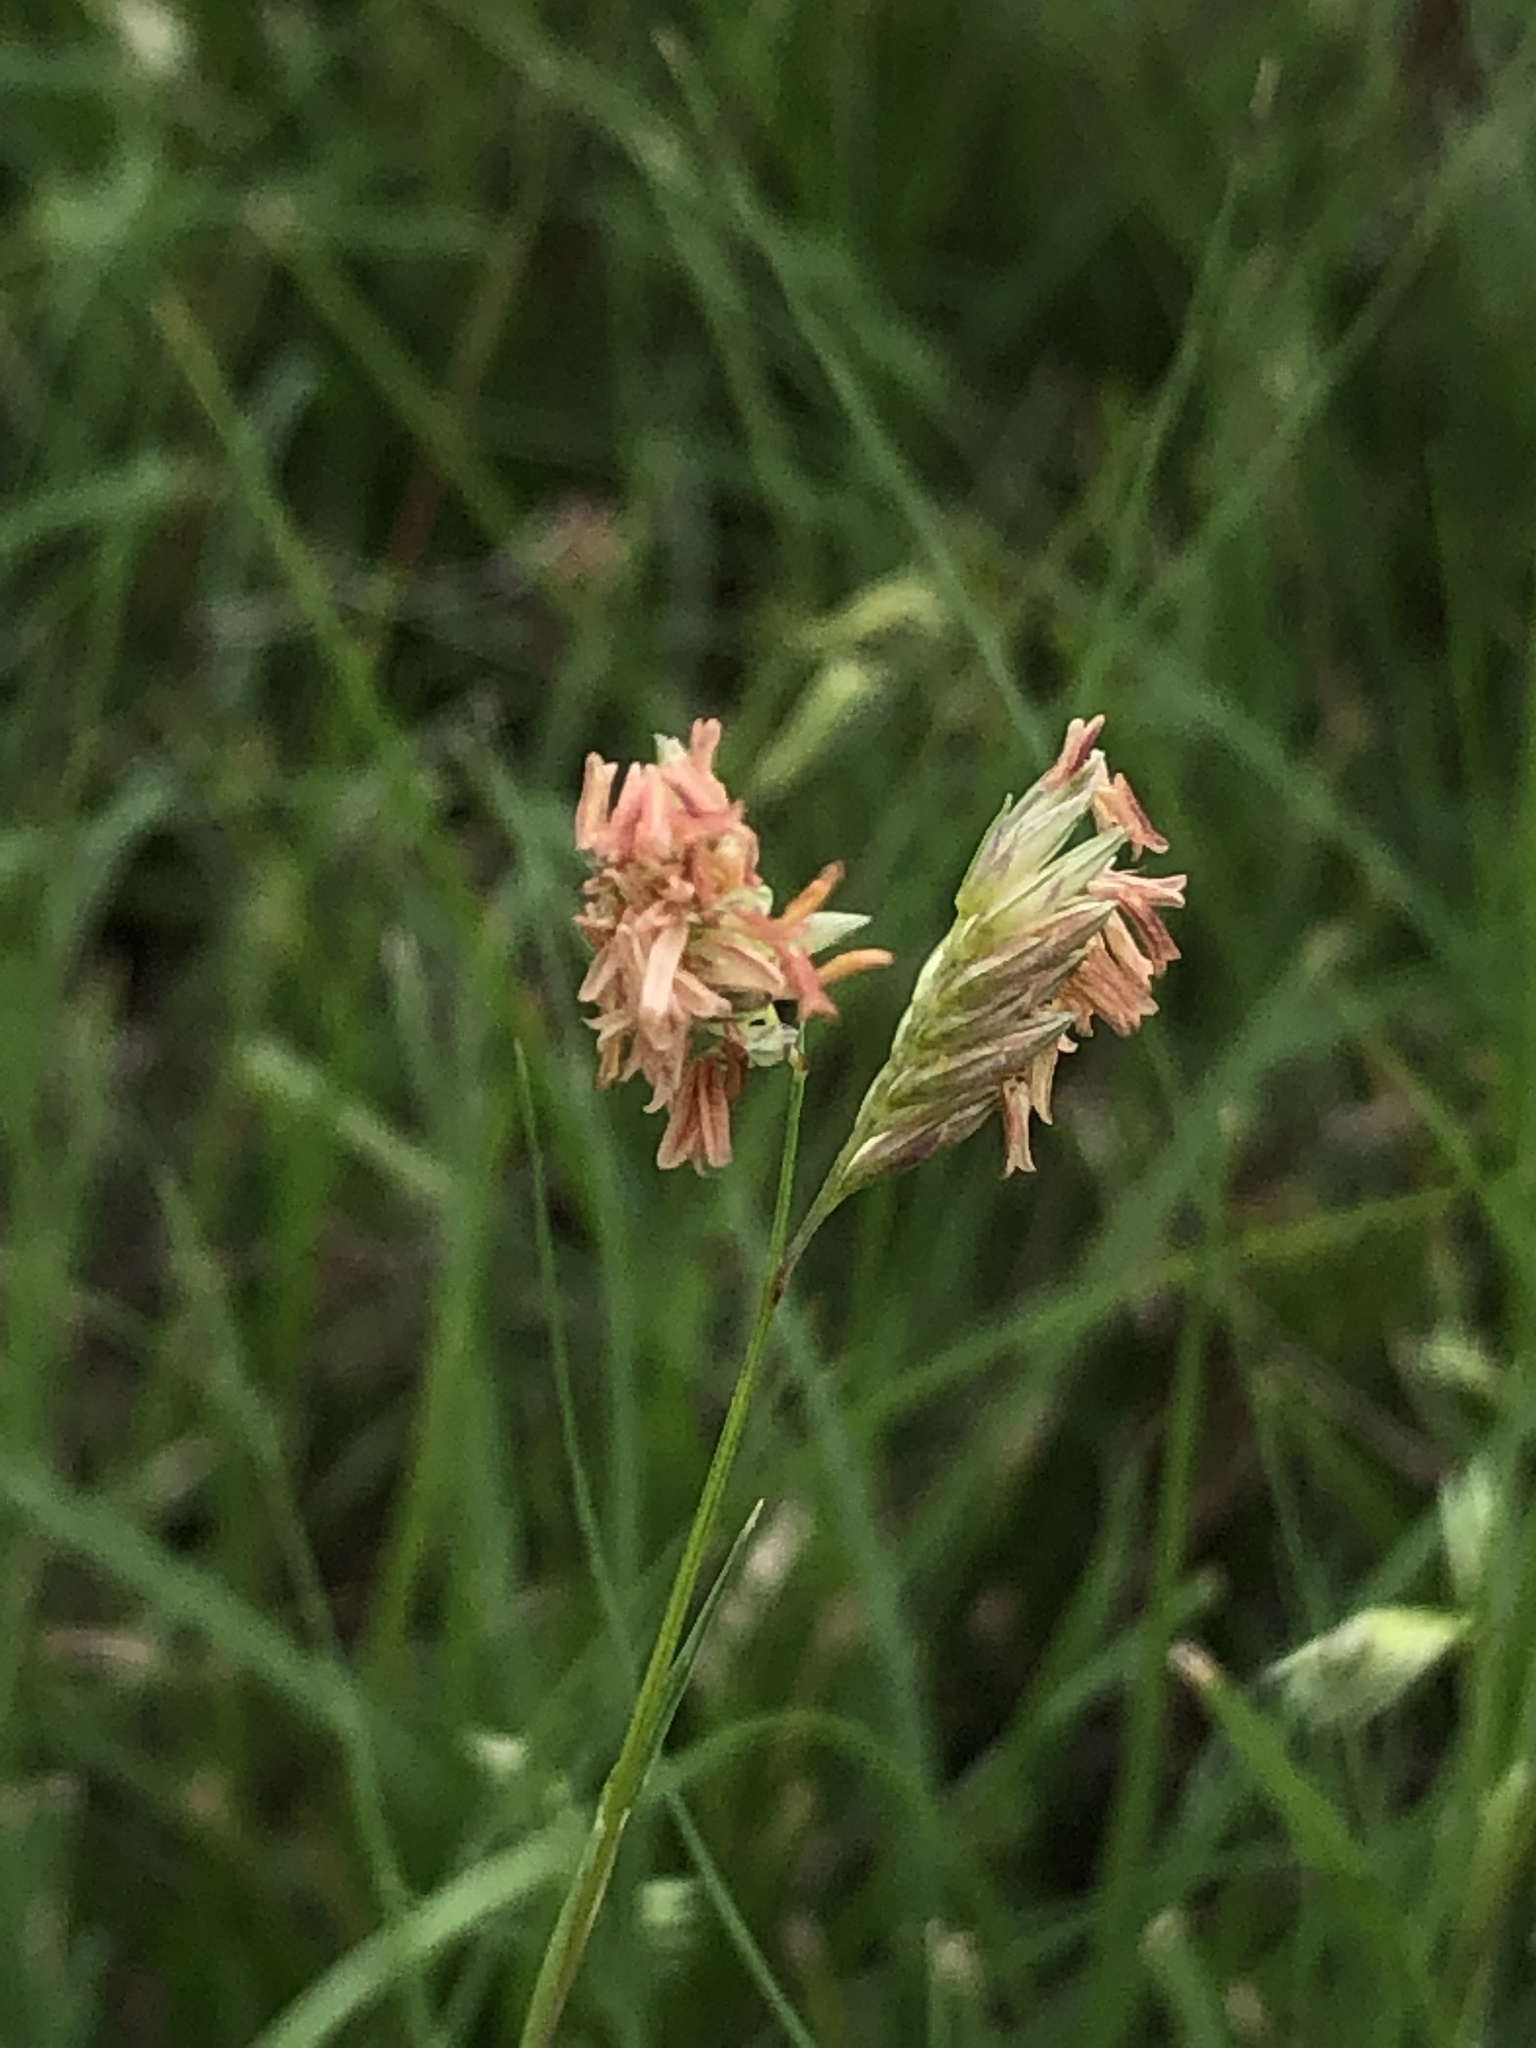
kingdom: Plantae
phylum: Tracheophyta
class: Liliopsida
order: Poales
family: Poaceae
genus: Bouteloua
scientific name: Bouteloua dactyloides
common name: Buffalo grass
